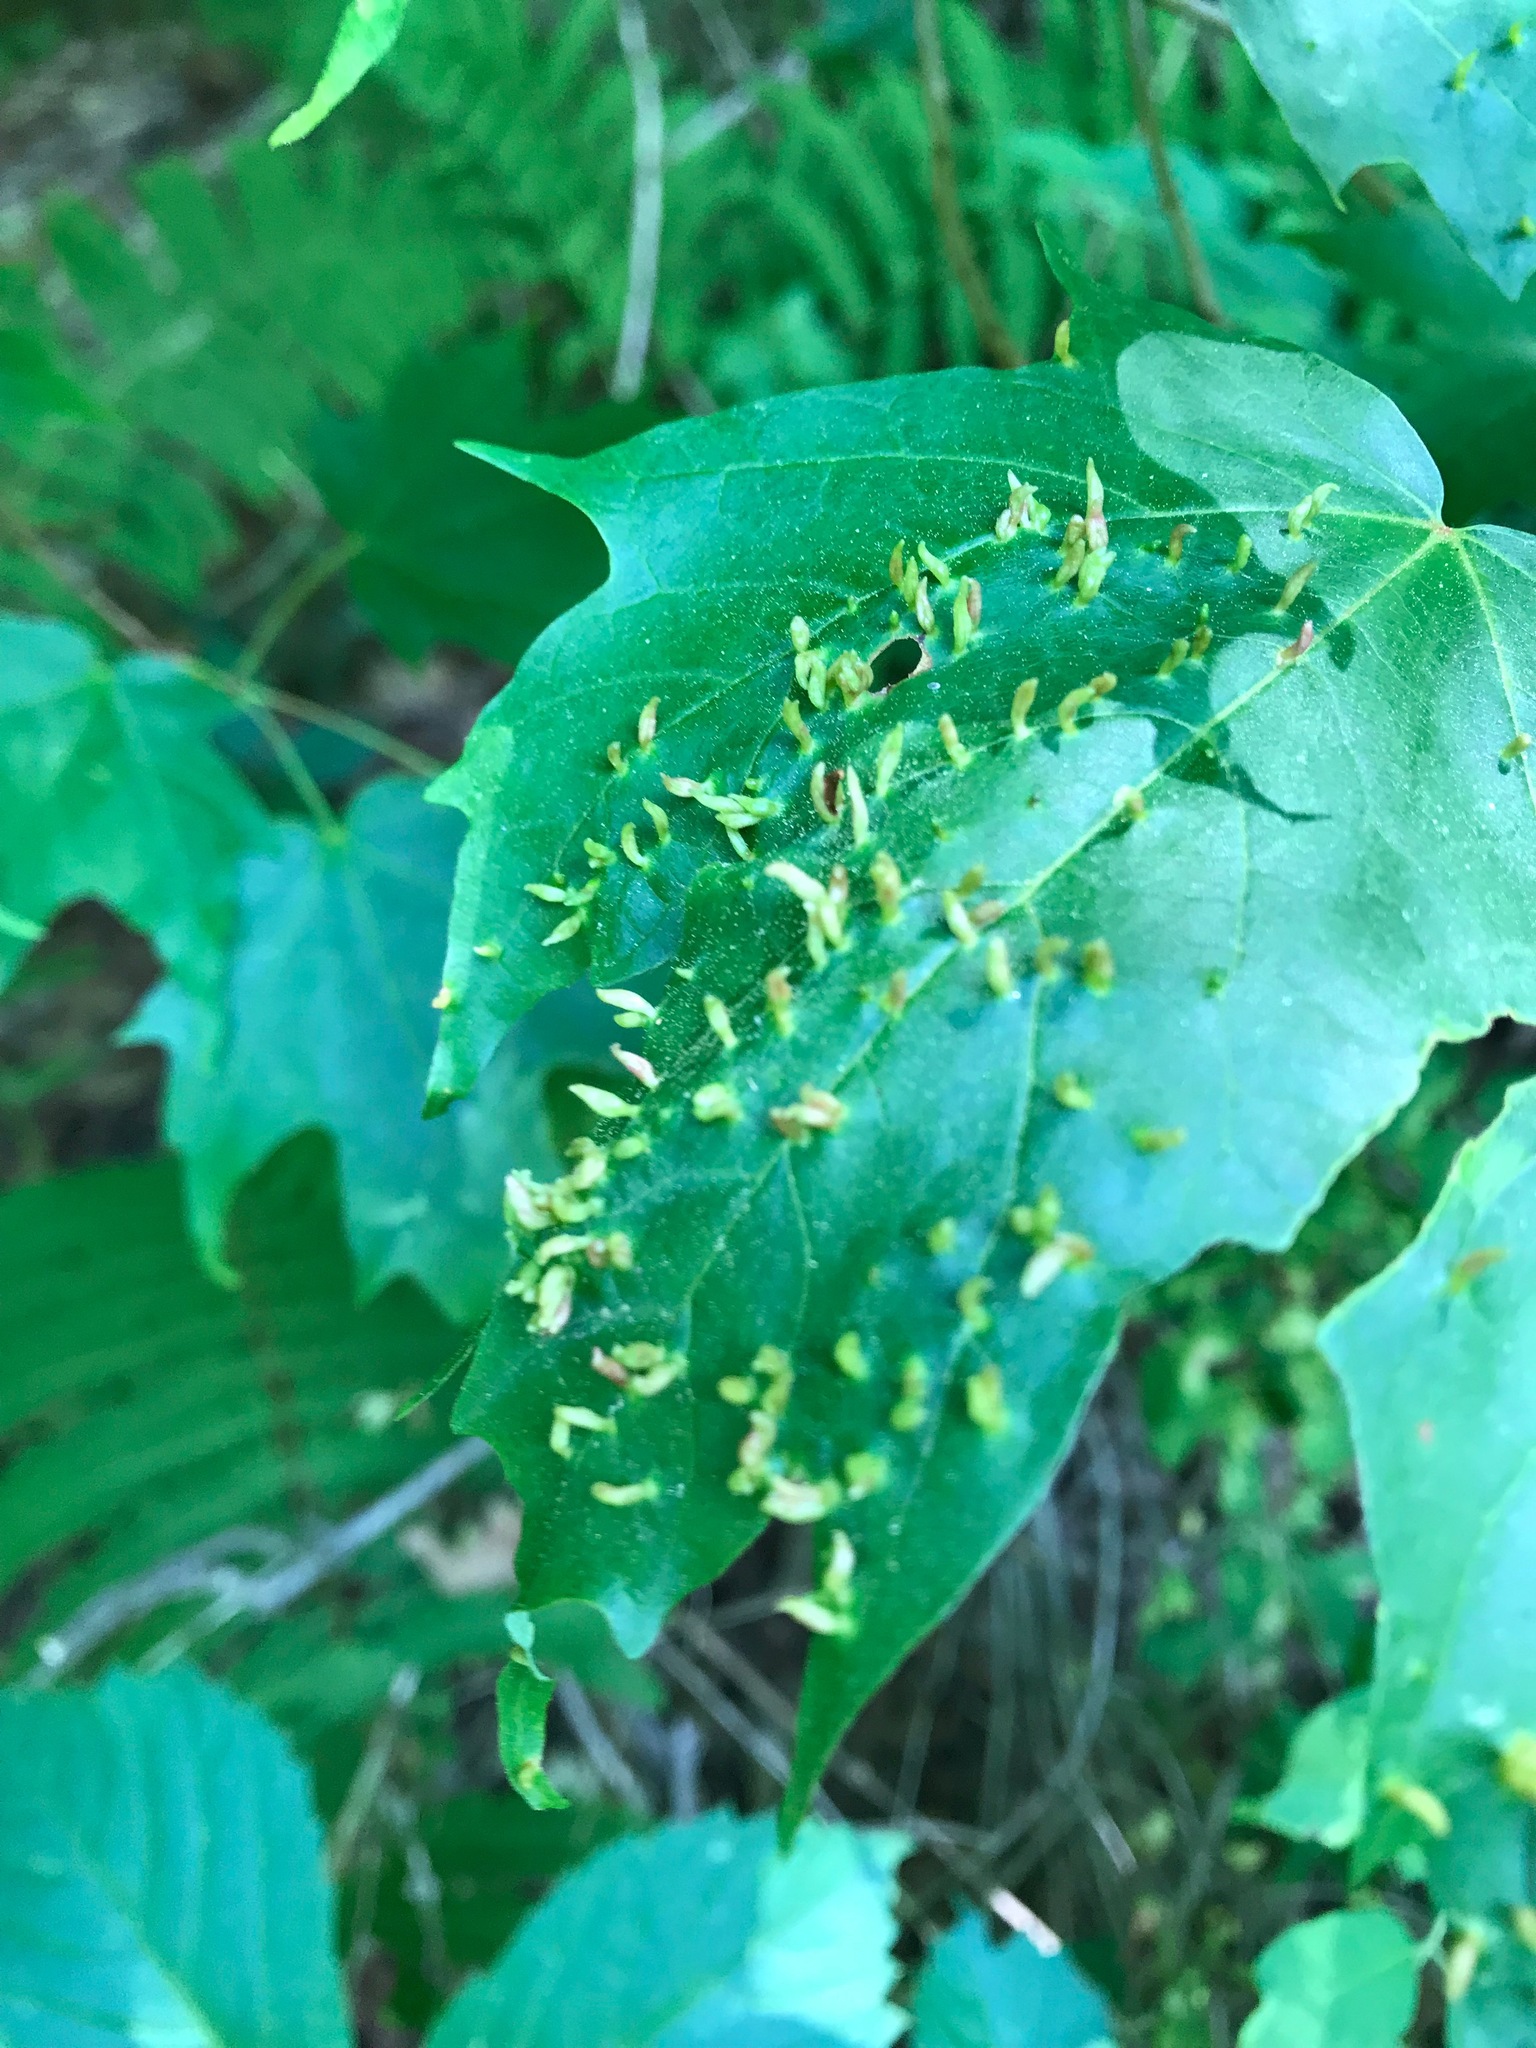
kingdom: Animalia
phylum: Arthropoda
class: Arachnida
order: Trombidiformes
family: Eriophyidae
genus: Vasates
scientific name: Vasates aceriscrumena
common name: Maple spindle gall mite
